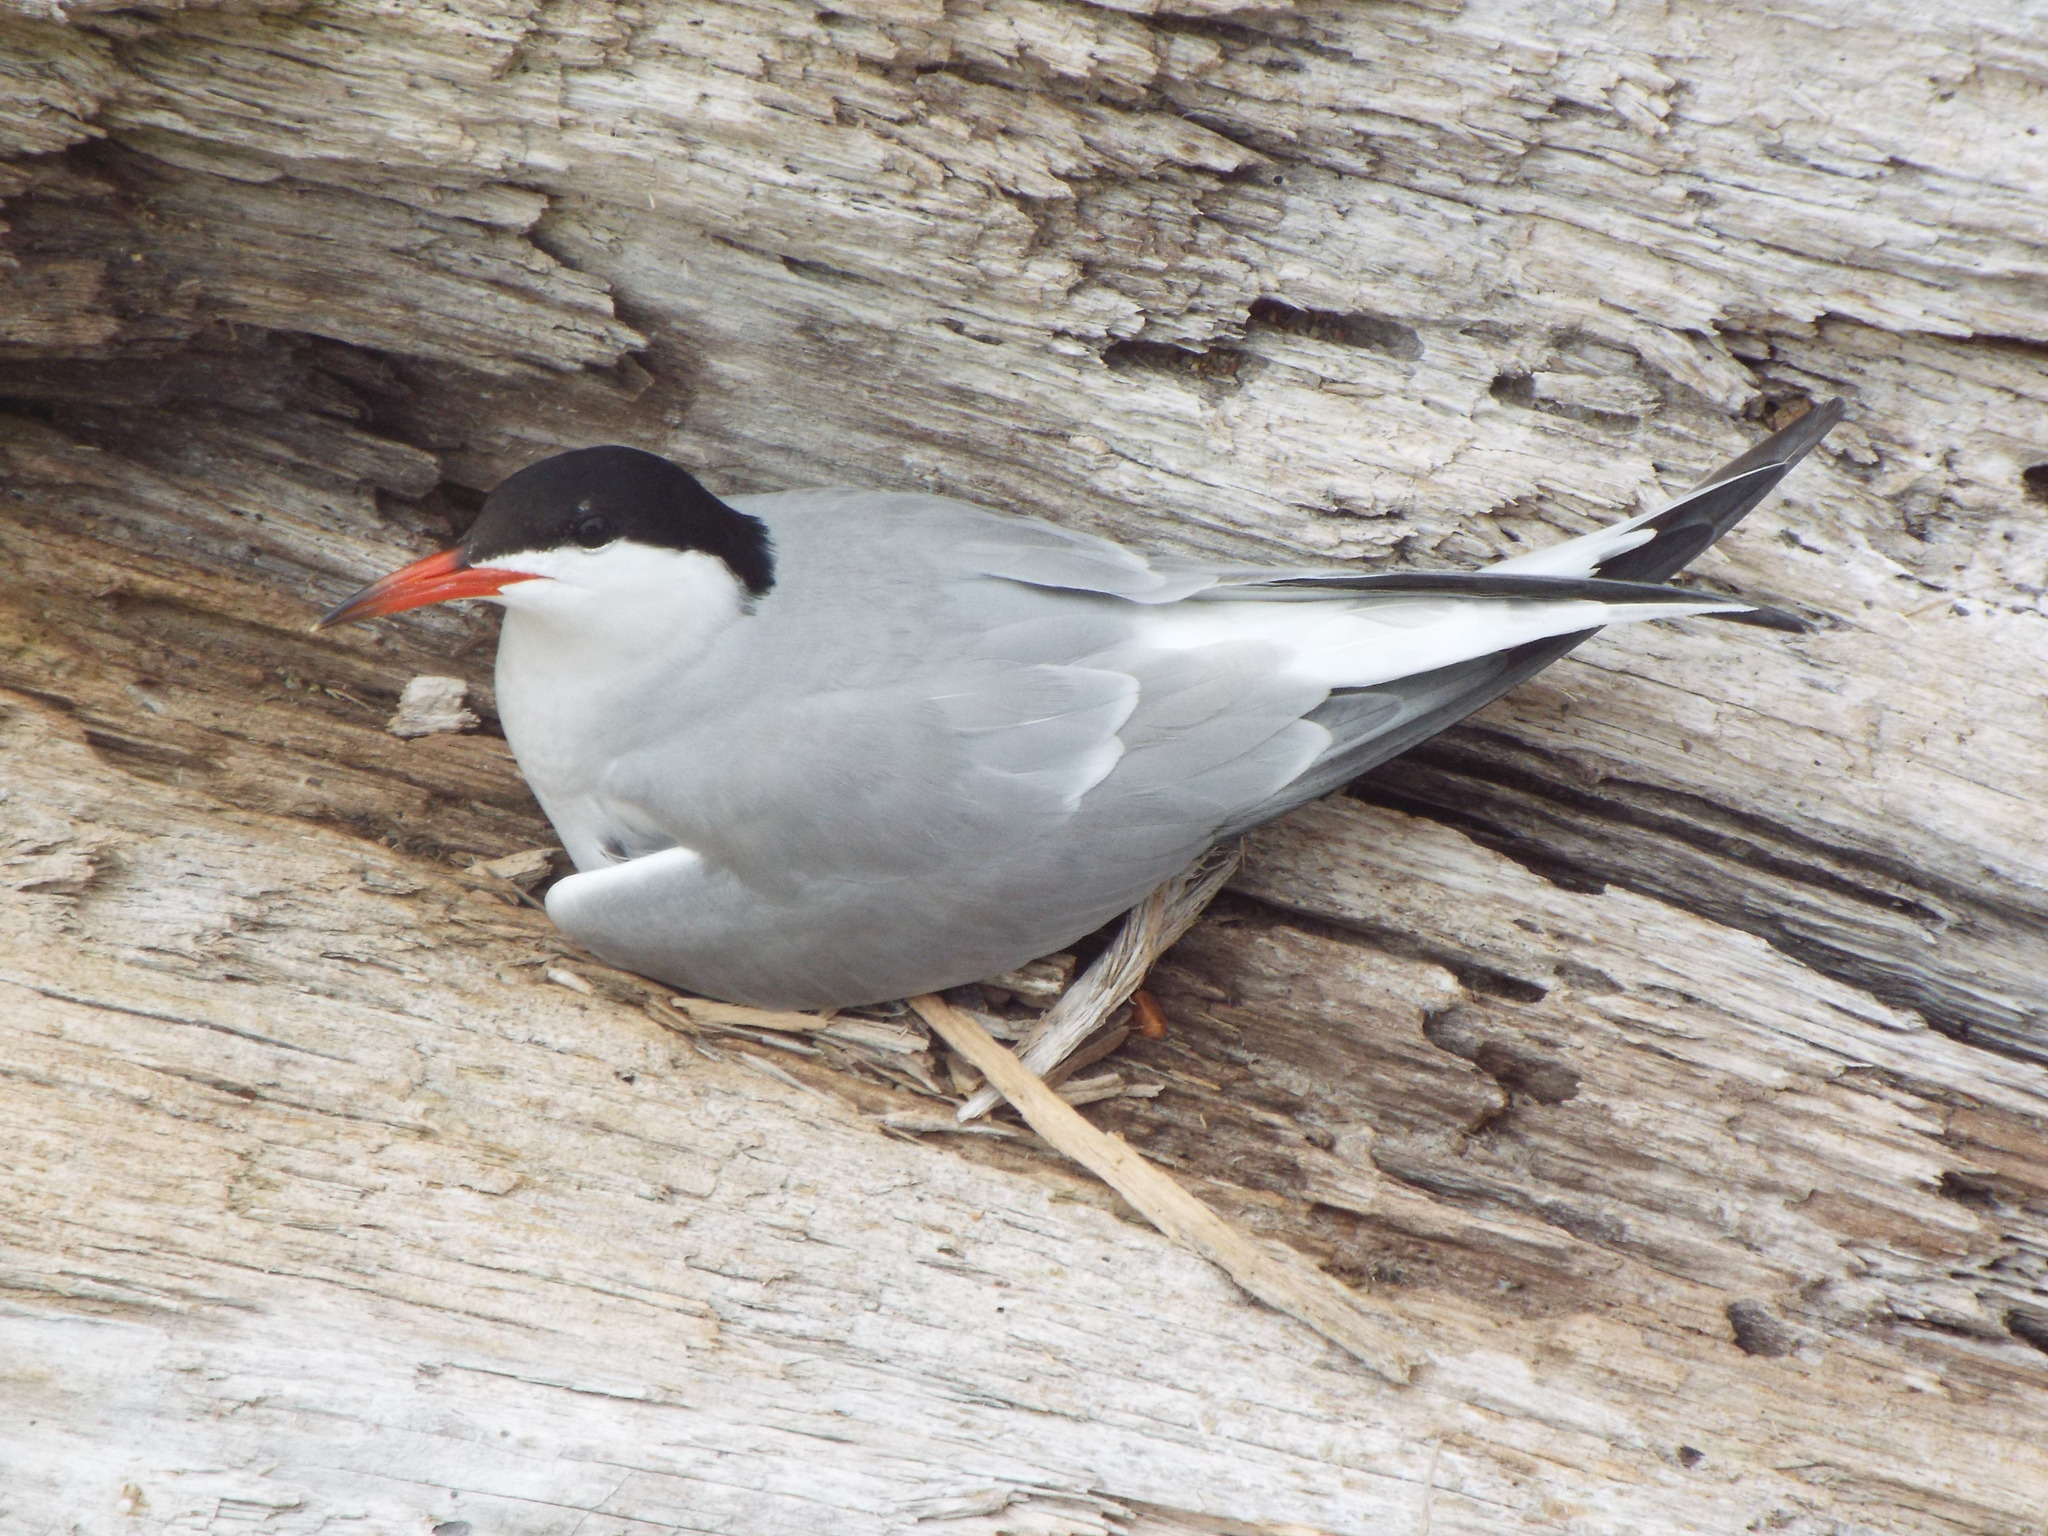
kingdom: Animalia
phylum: Chordata
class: Aves
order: Charadriiformes
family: Laridae
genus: Sterna
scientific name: Sterna hirundo
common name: Common tern
